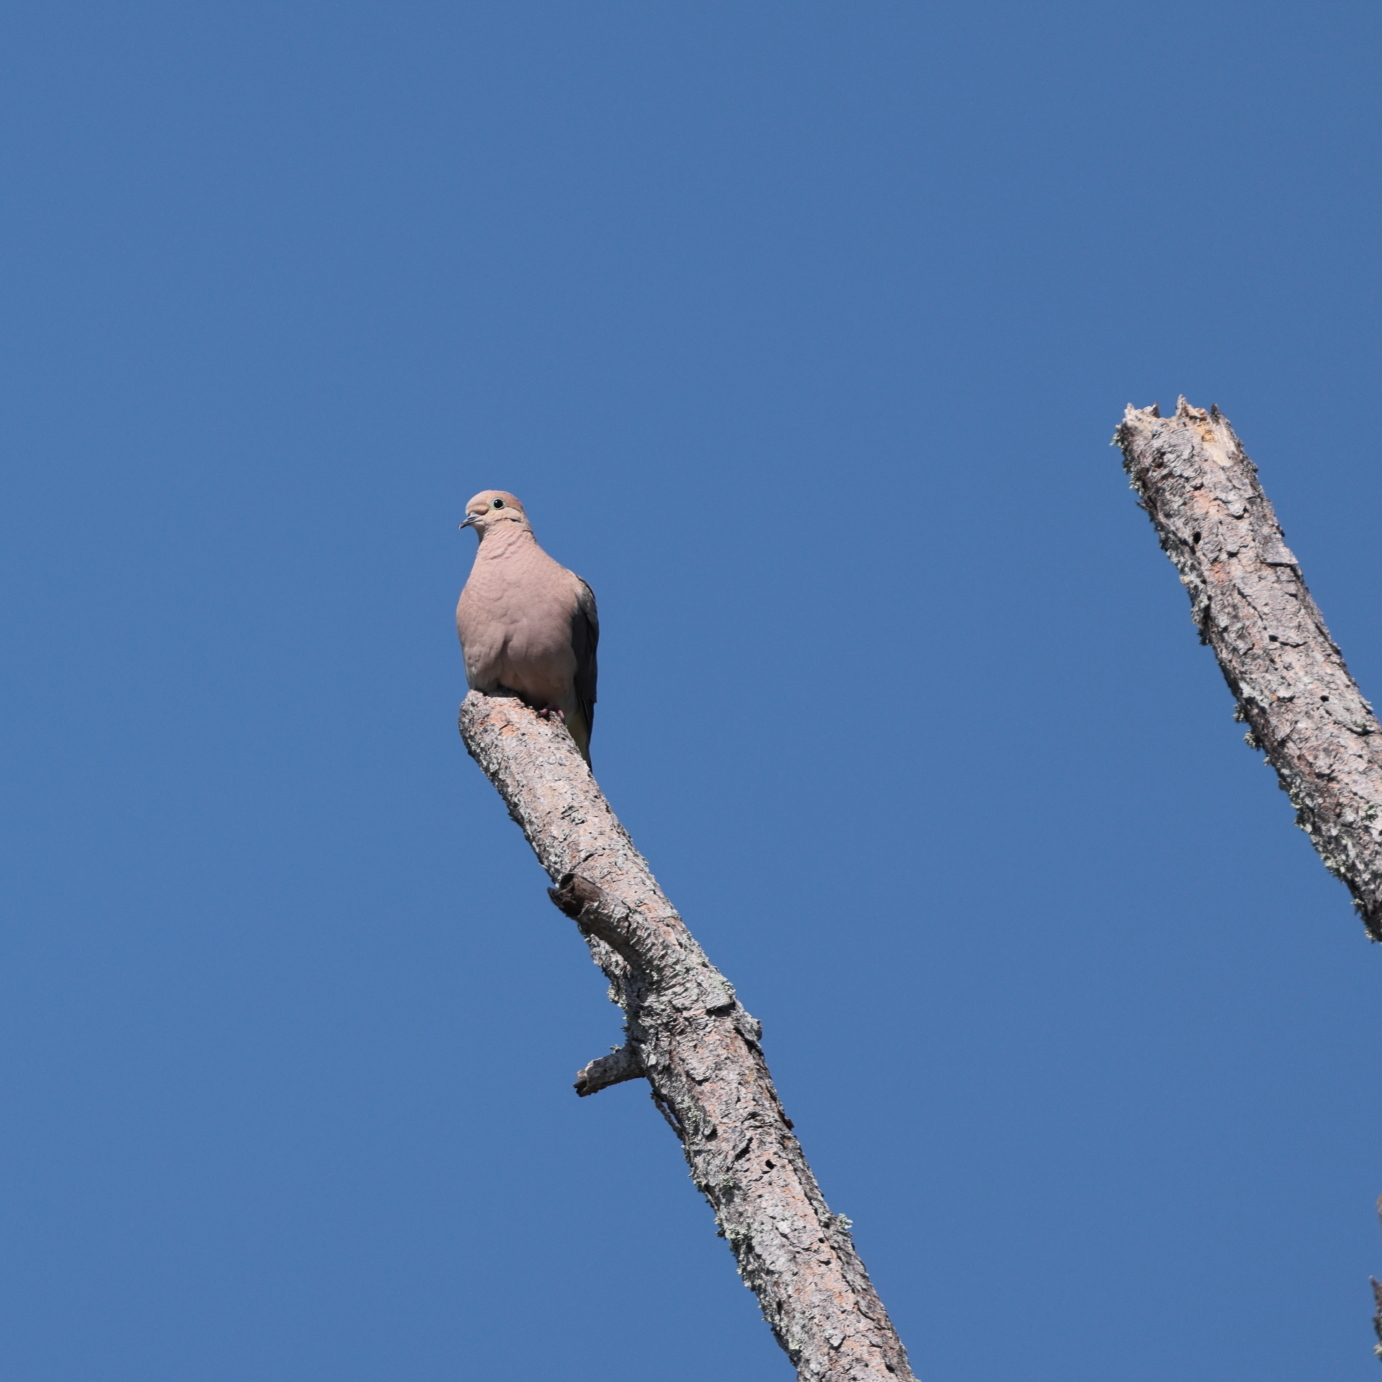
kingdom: Animalia
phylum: Chordata
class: Aves
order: Columbiformes
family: Columbidae
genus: Zenaida
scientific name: Zenaida macroura
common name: Mourning dove
